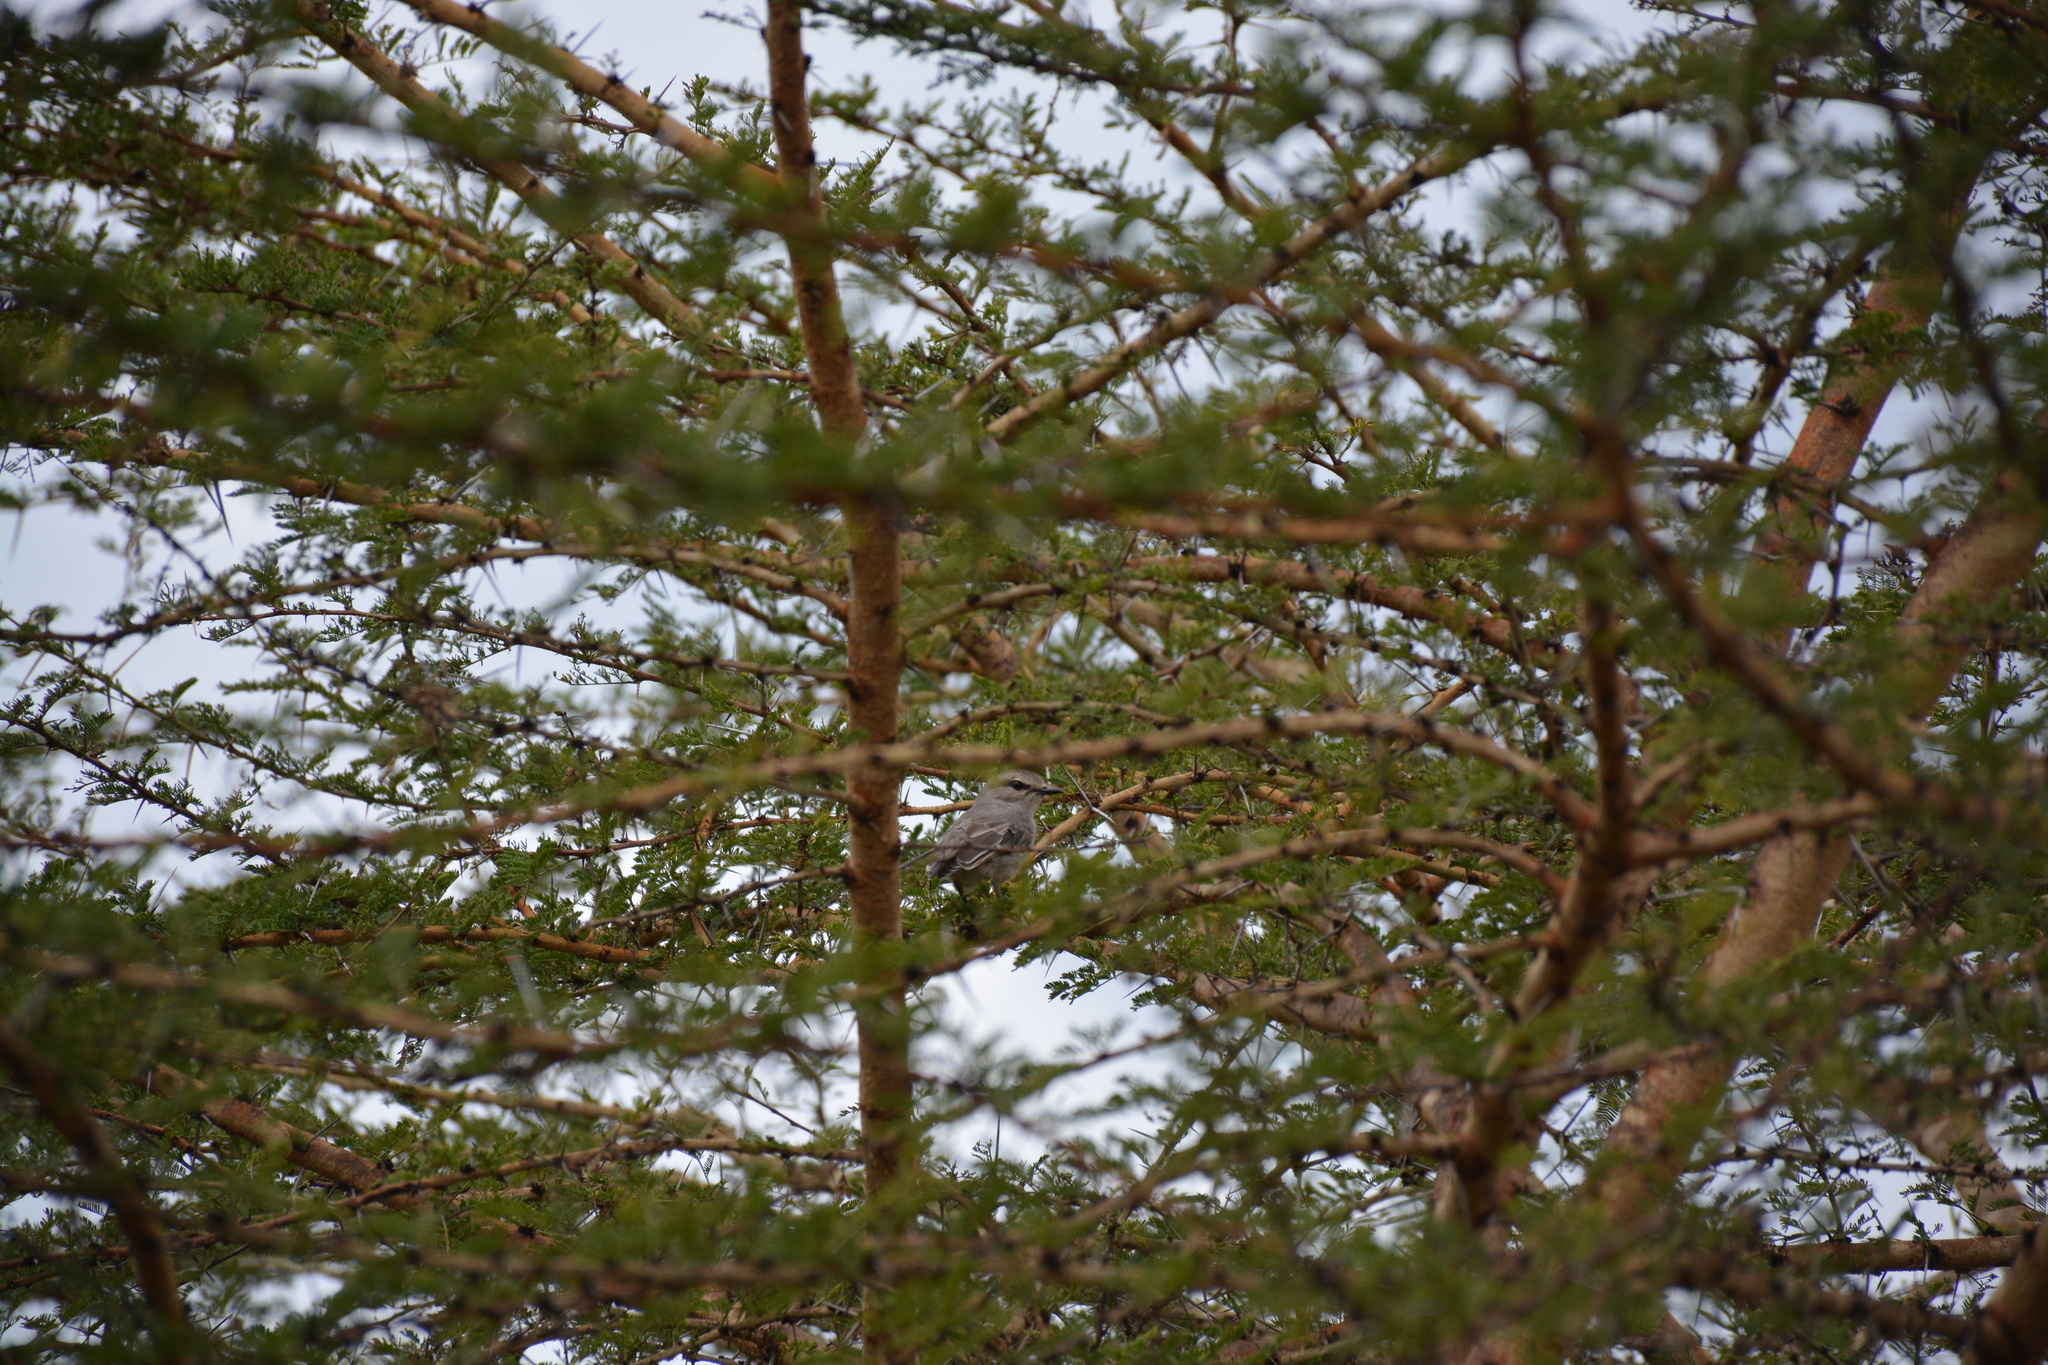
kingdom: Animalia
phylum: Chordata
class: Aves
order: Passeriformes
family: Muscicapidae
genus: Bradornis
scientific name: Bradornis microrhynchus
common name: African grey flycatcher
